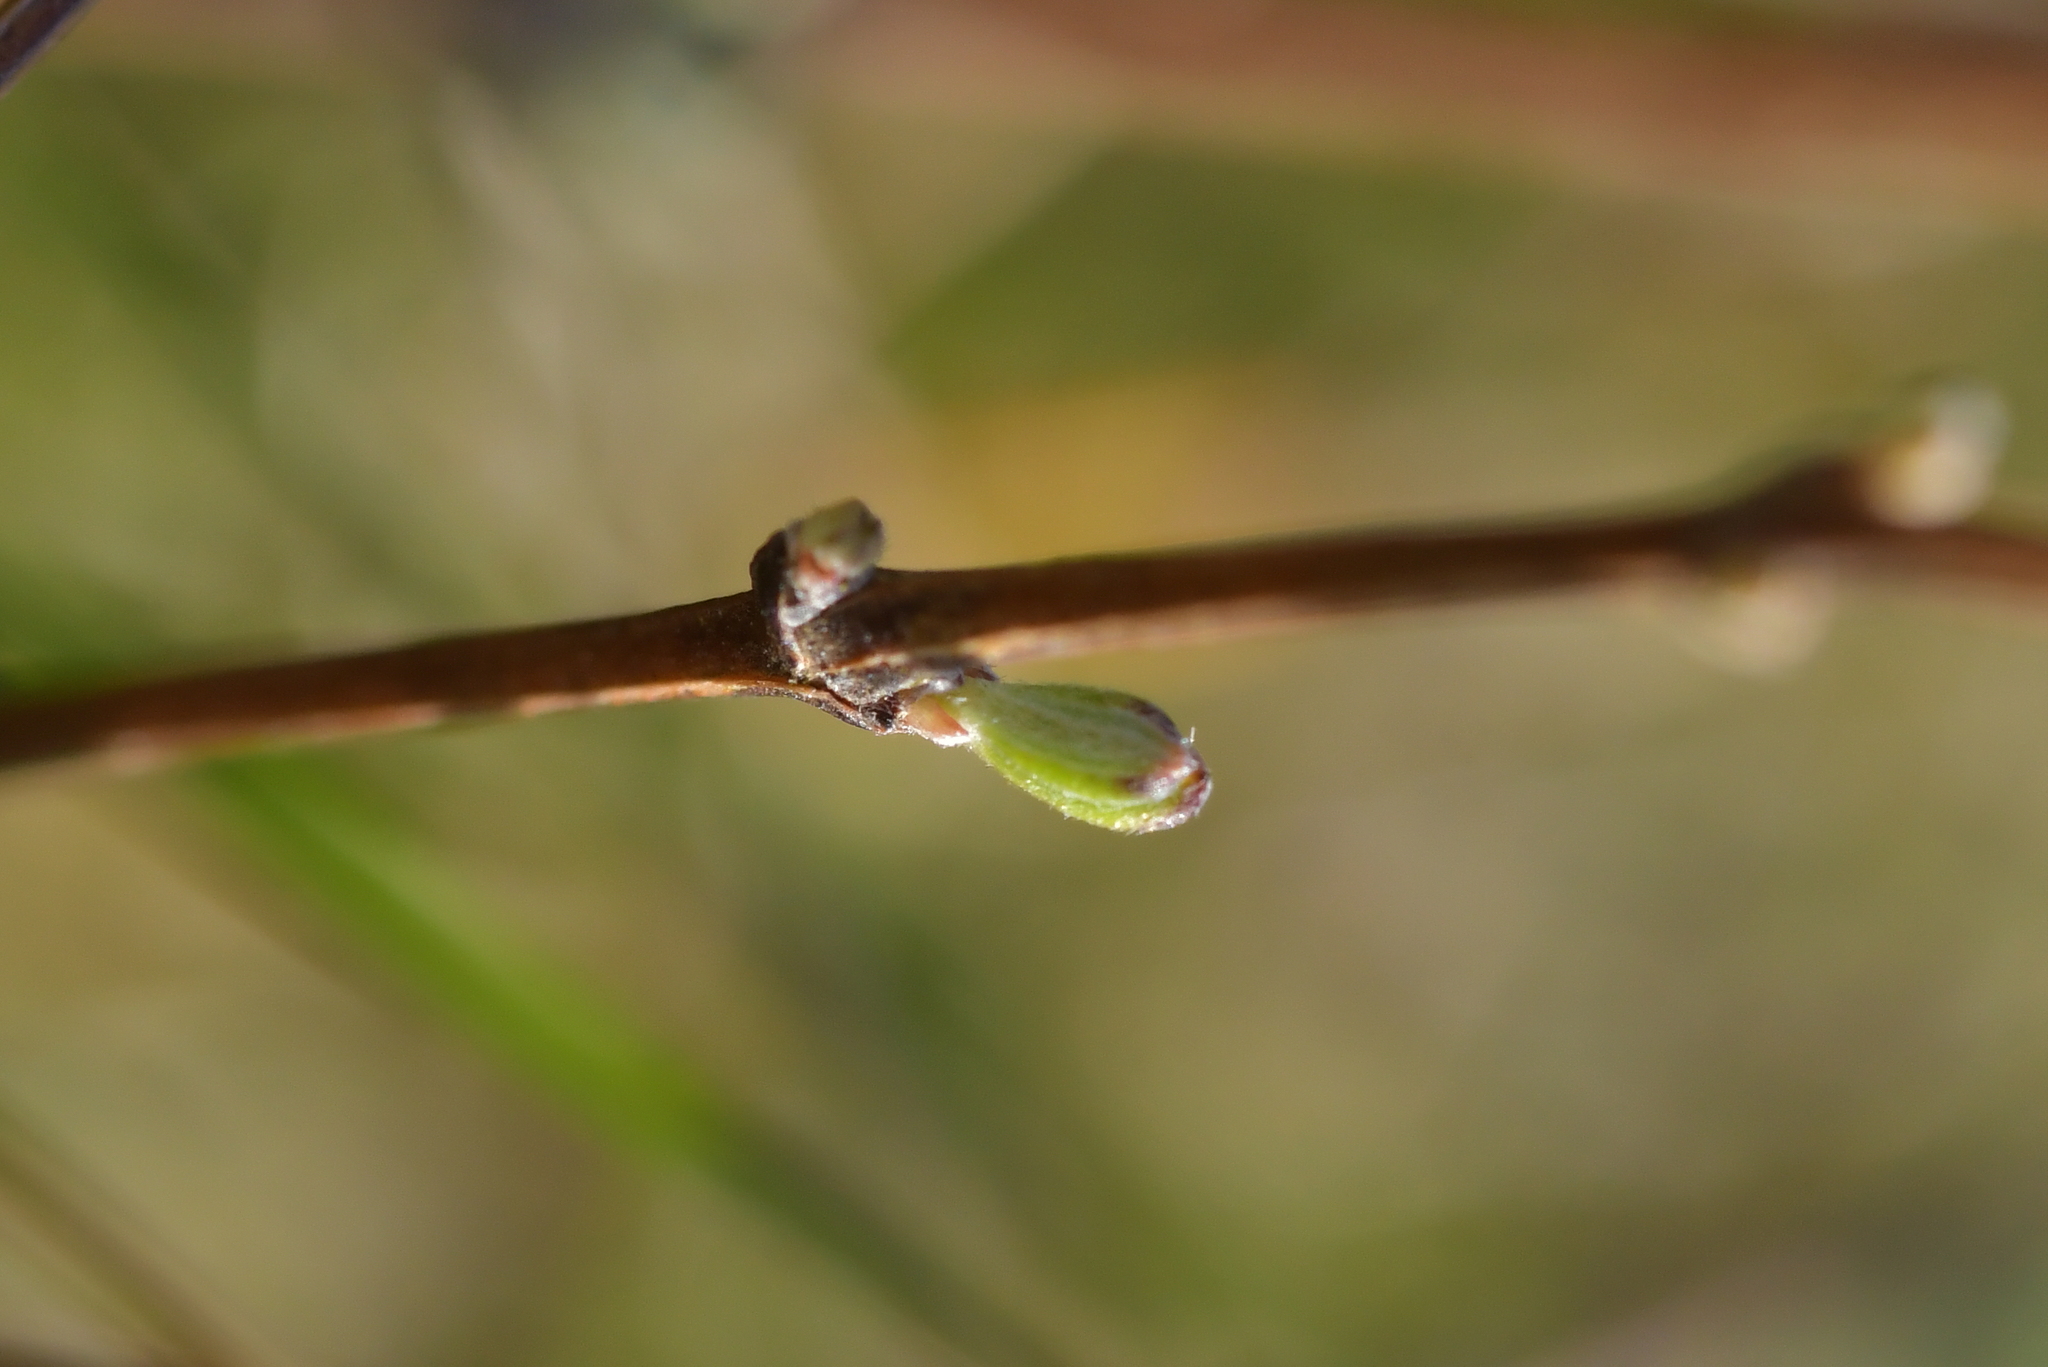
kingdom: Plantae
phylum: Tracheophyta
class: Magnoliopsida
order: Asterales
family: Asteraceae
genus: Olearia
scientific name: Olearia bullata
